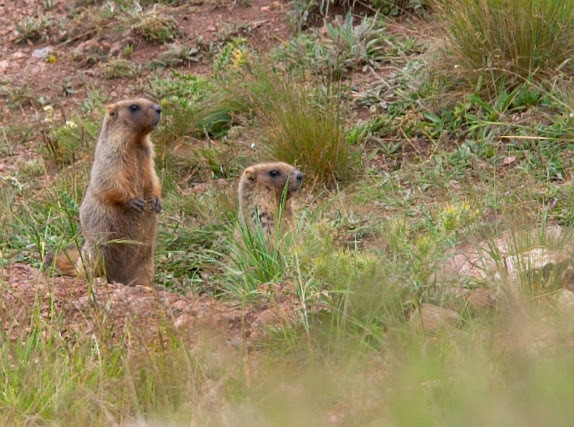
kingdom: Animalia
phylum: Chordata
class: Mammalia
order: Rodentia
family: Sciuridae
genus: Marmota
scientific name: Marmota baibacina
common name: Gray marmot
